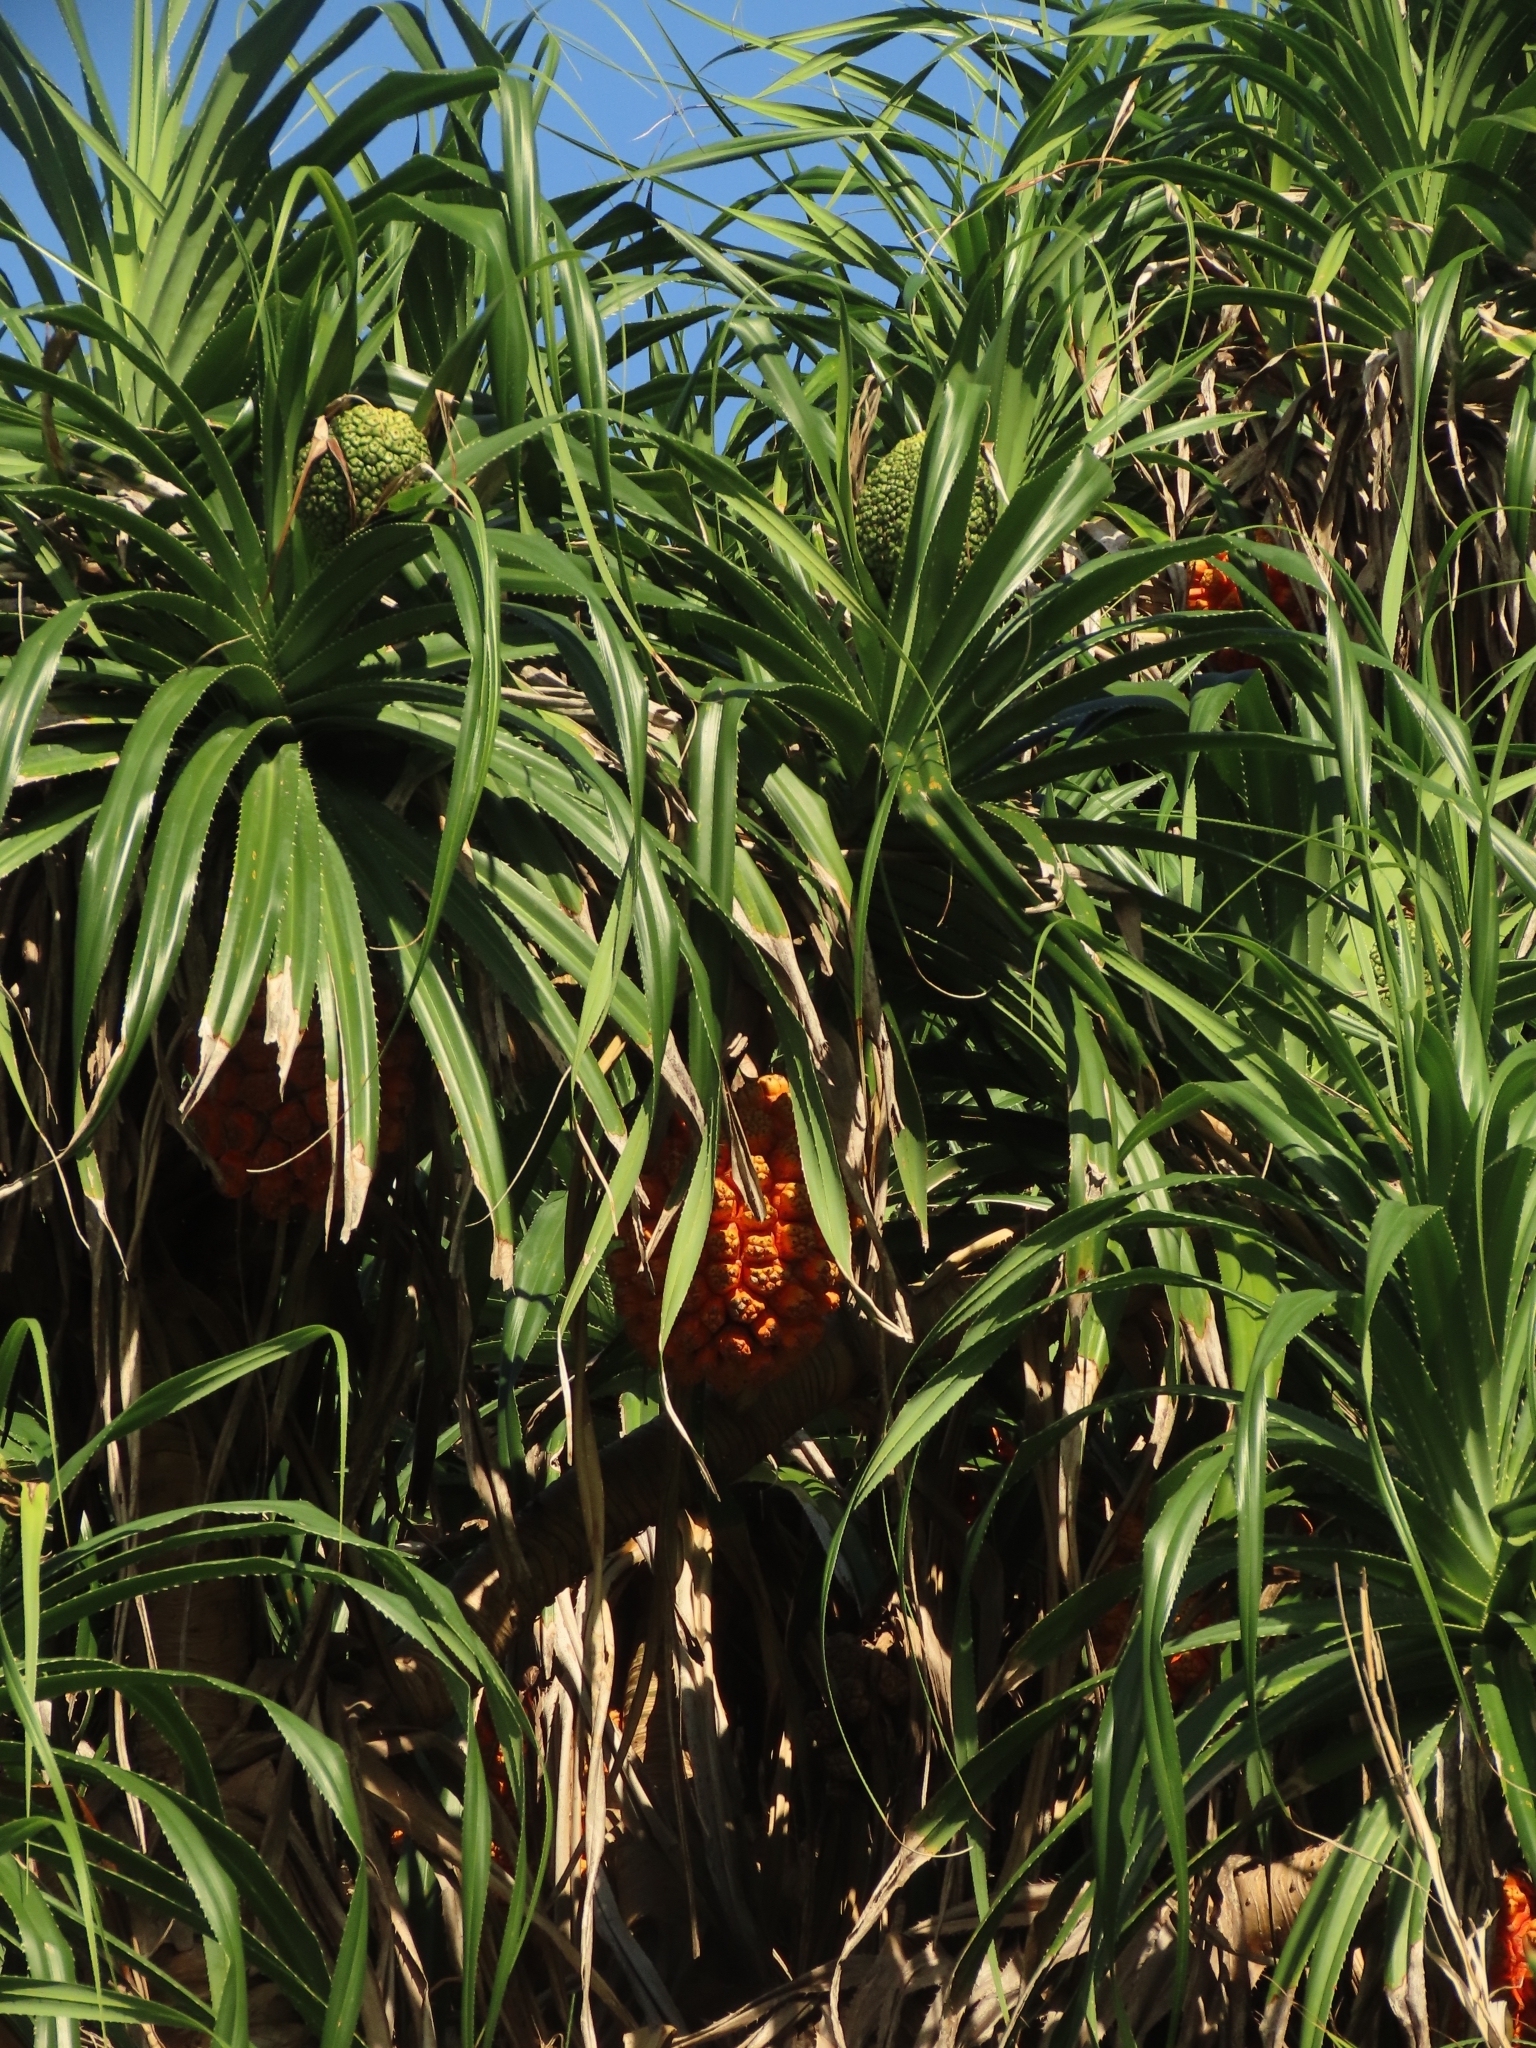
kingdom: Plantae
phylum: Tracheophyta
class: Liliopsida
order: Pandanales
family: Pandanaceae
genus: Pandanus
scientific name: Pandanus odorifer
